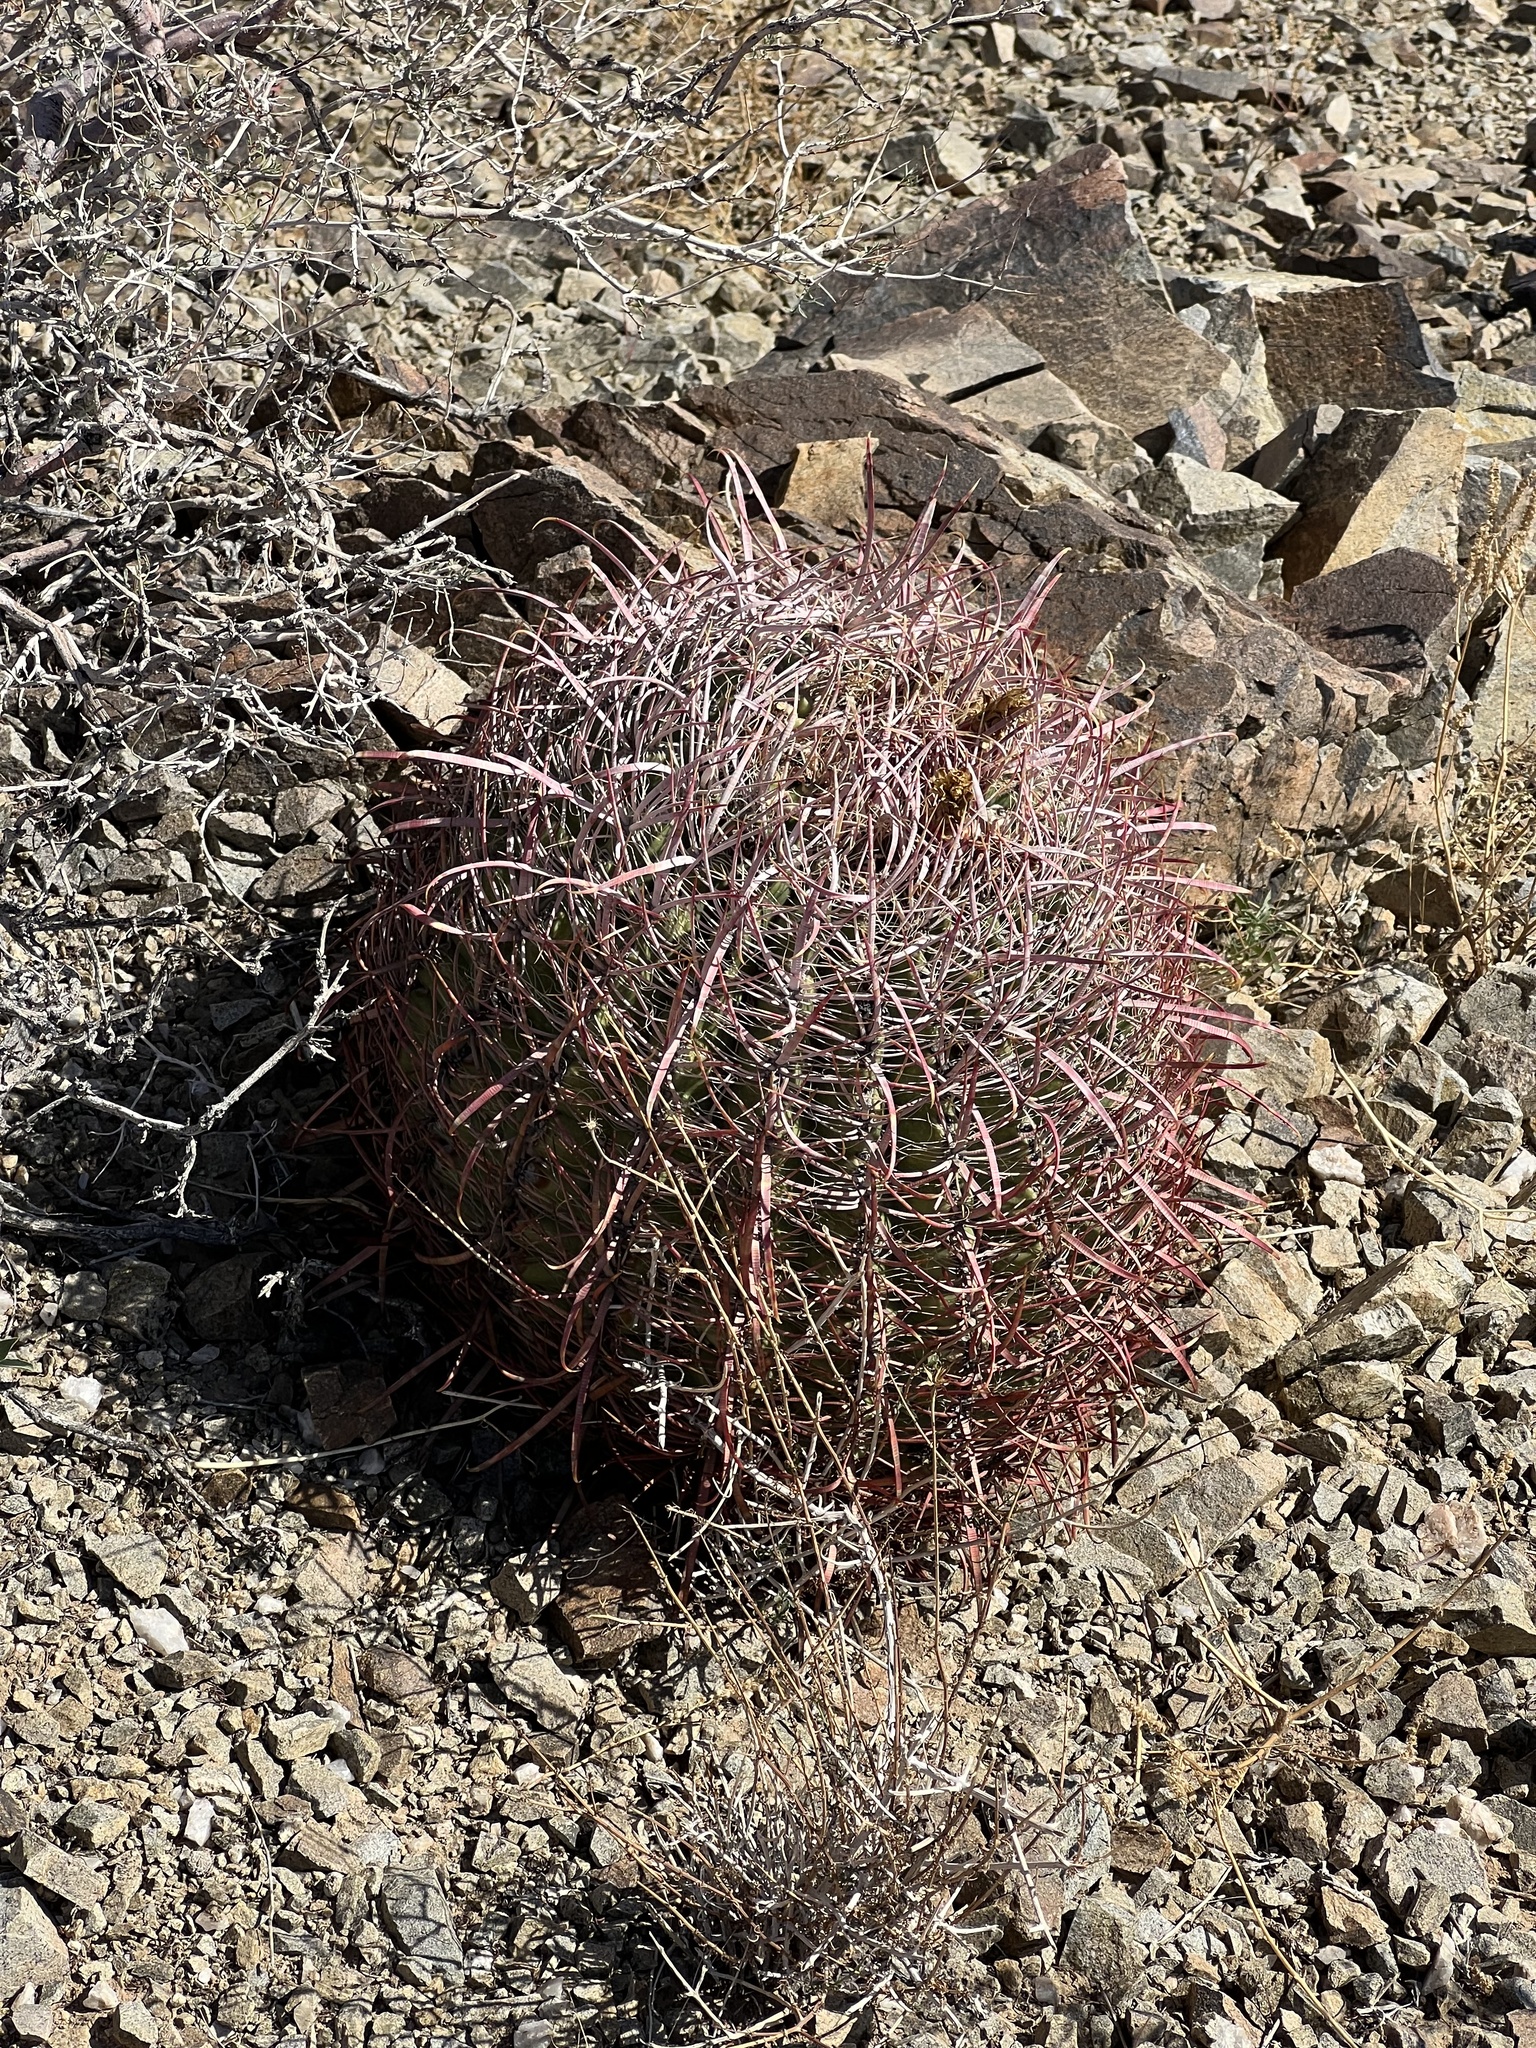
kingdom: Plantae
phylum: Tracheophyta
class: Magnoliopsida
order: Caryophyllales
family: Cactaceae
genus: Ferocactus
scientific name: Ferocactus cylindraceus
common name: California barrel cactus
